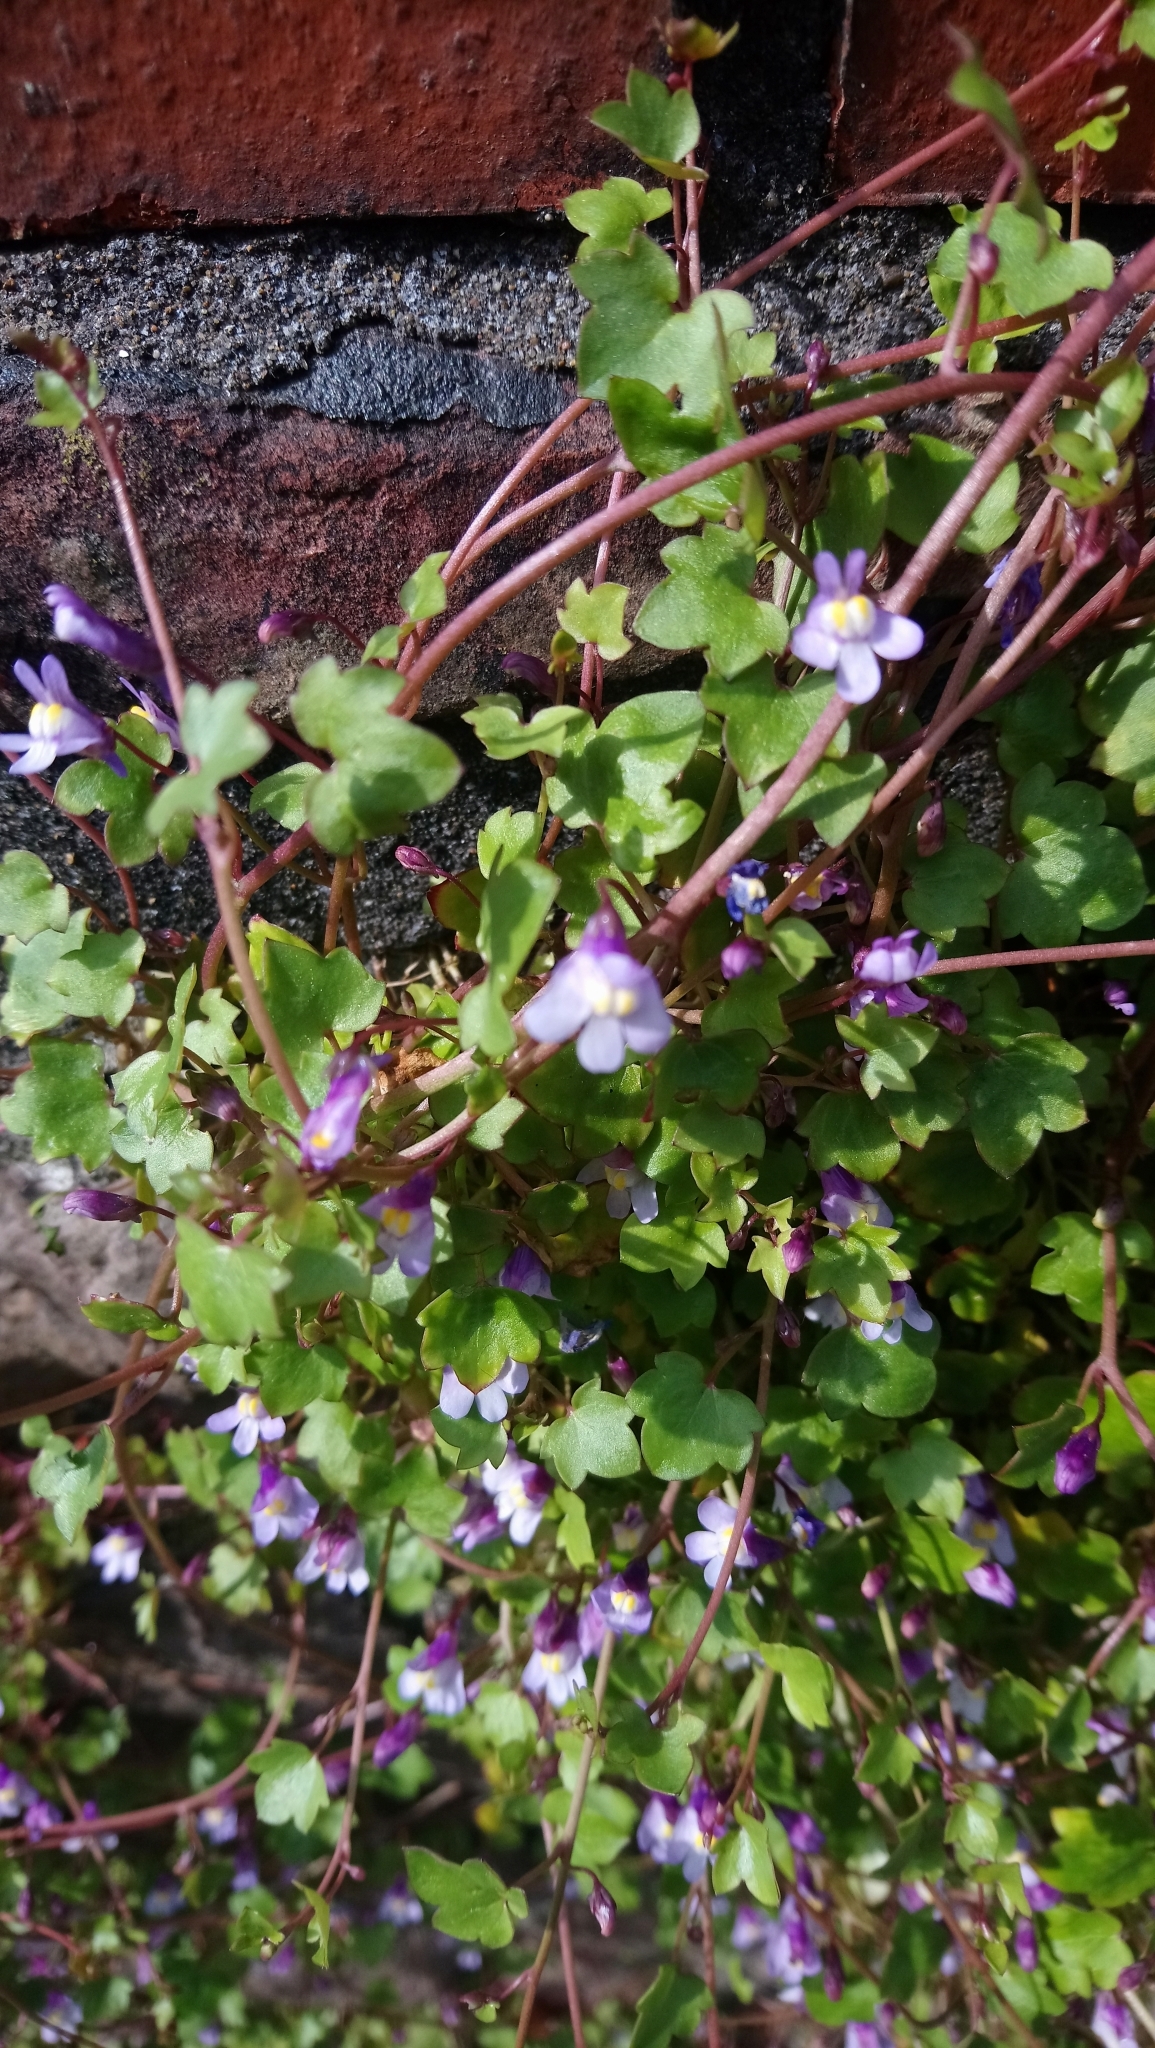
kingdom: Plantae
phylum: Tracheophyta
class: Magnoliopsida
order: Lamiales
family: Plantaginaceae
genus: Cymbalaria
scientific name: Cymbalaria muralis
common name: Ivy-leaved toadflax
